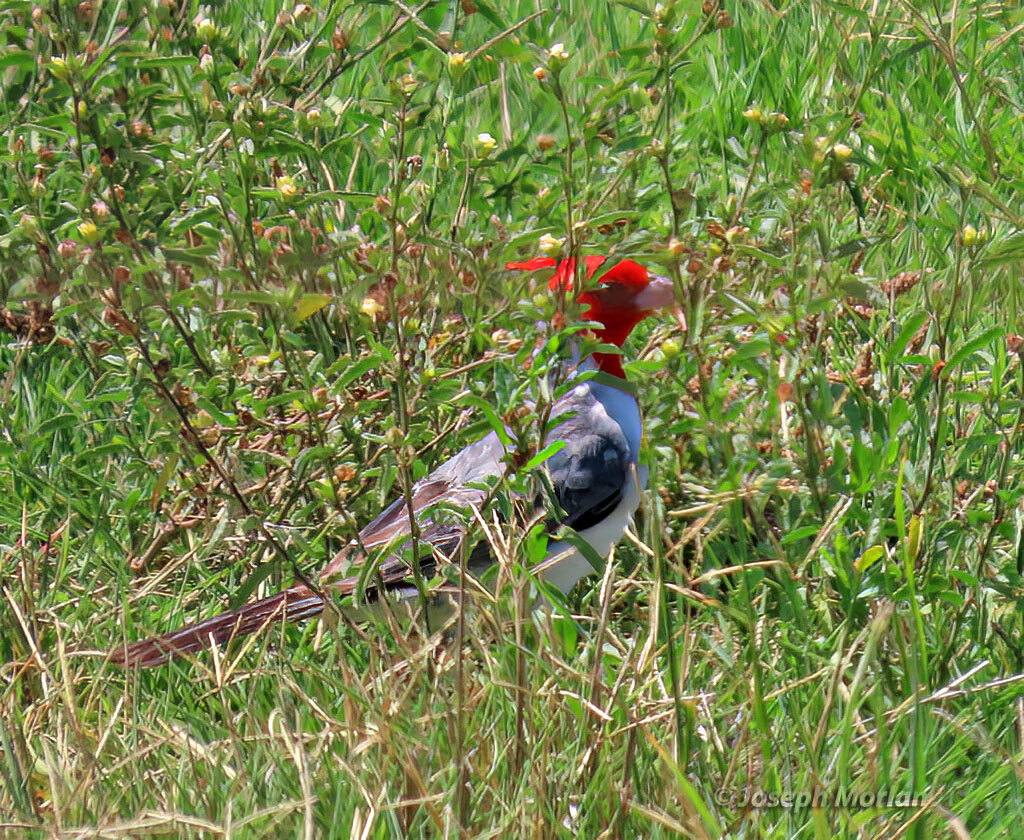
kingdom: Animalia
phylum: Chordata
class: Aves
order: Passeriformes
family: Thraupidae
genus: Paroaria
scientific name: Paroaria coronata
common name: Red-crested cardinal
